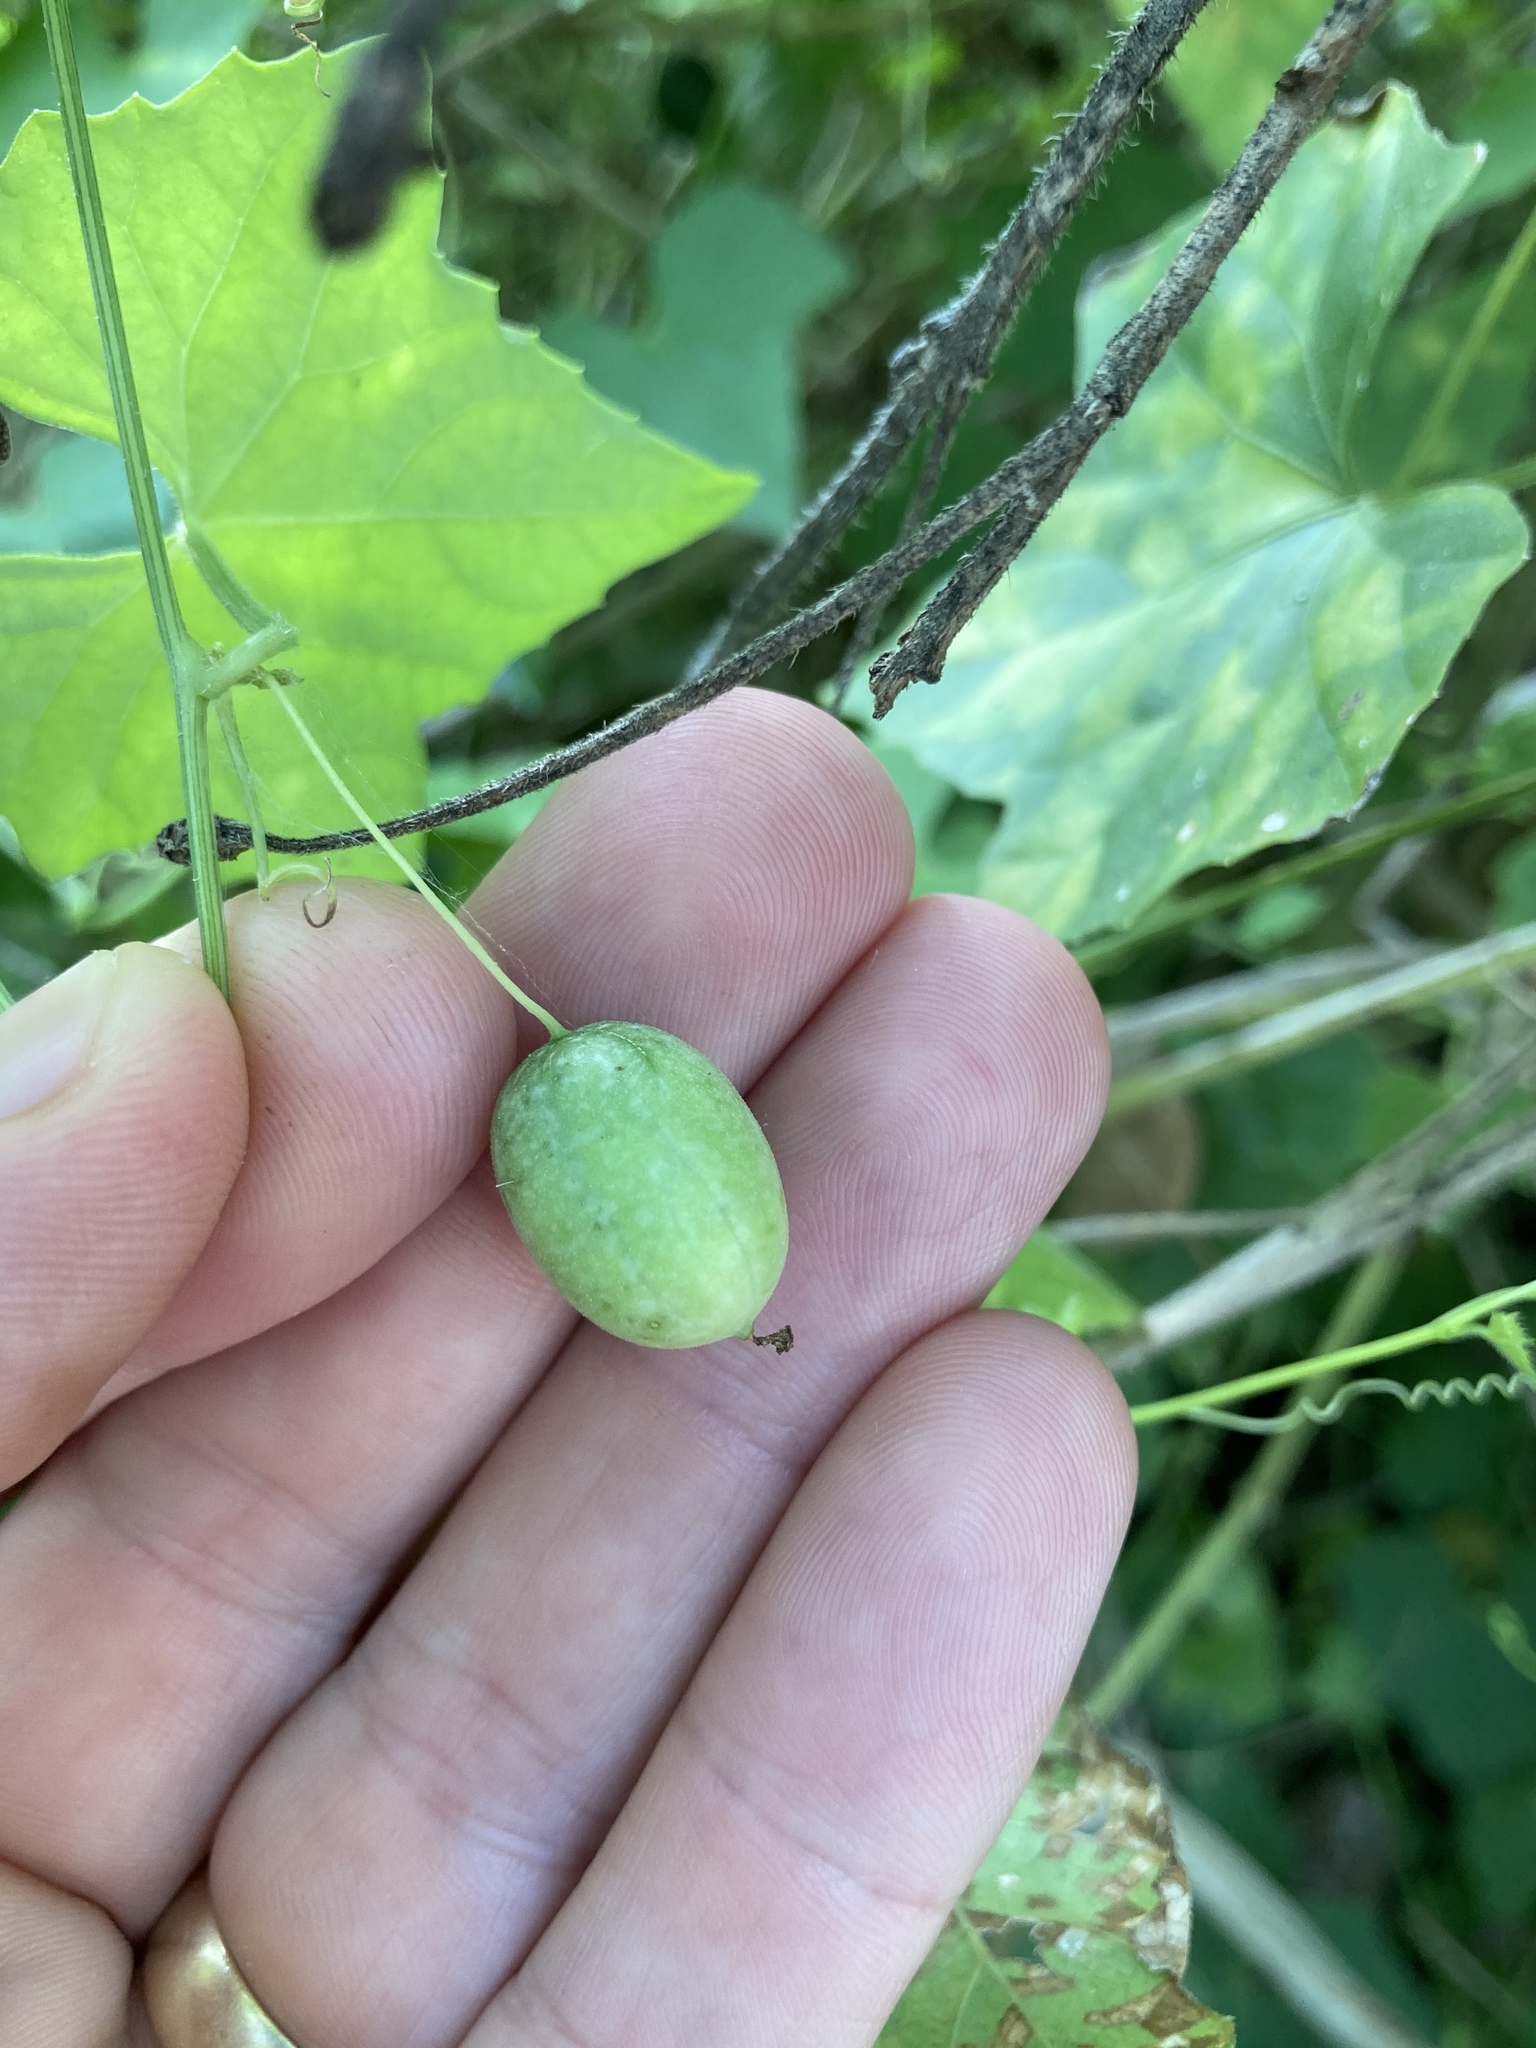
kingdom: Plantae
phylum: Tracheophyta
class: Magnoliopsida
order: Cucurbitales
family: Cucurbitaceae
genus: Melothria
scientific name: Melothria pendula
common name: Creeping-cucumber
